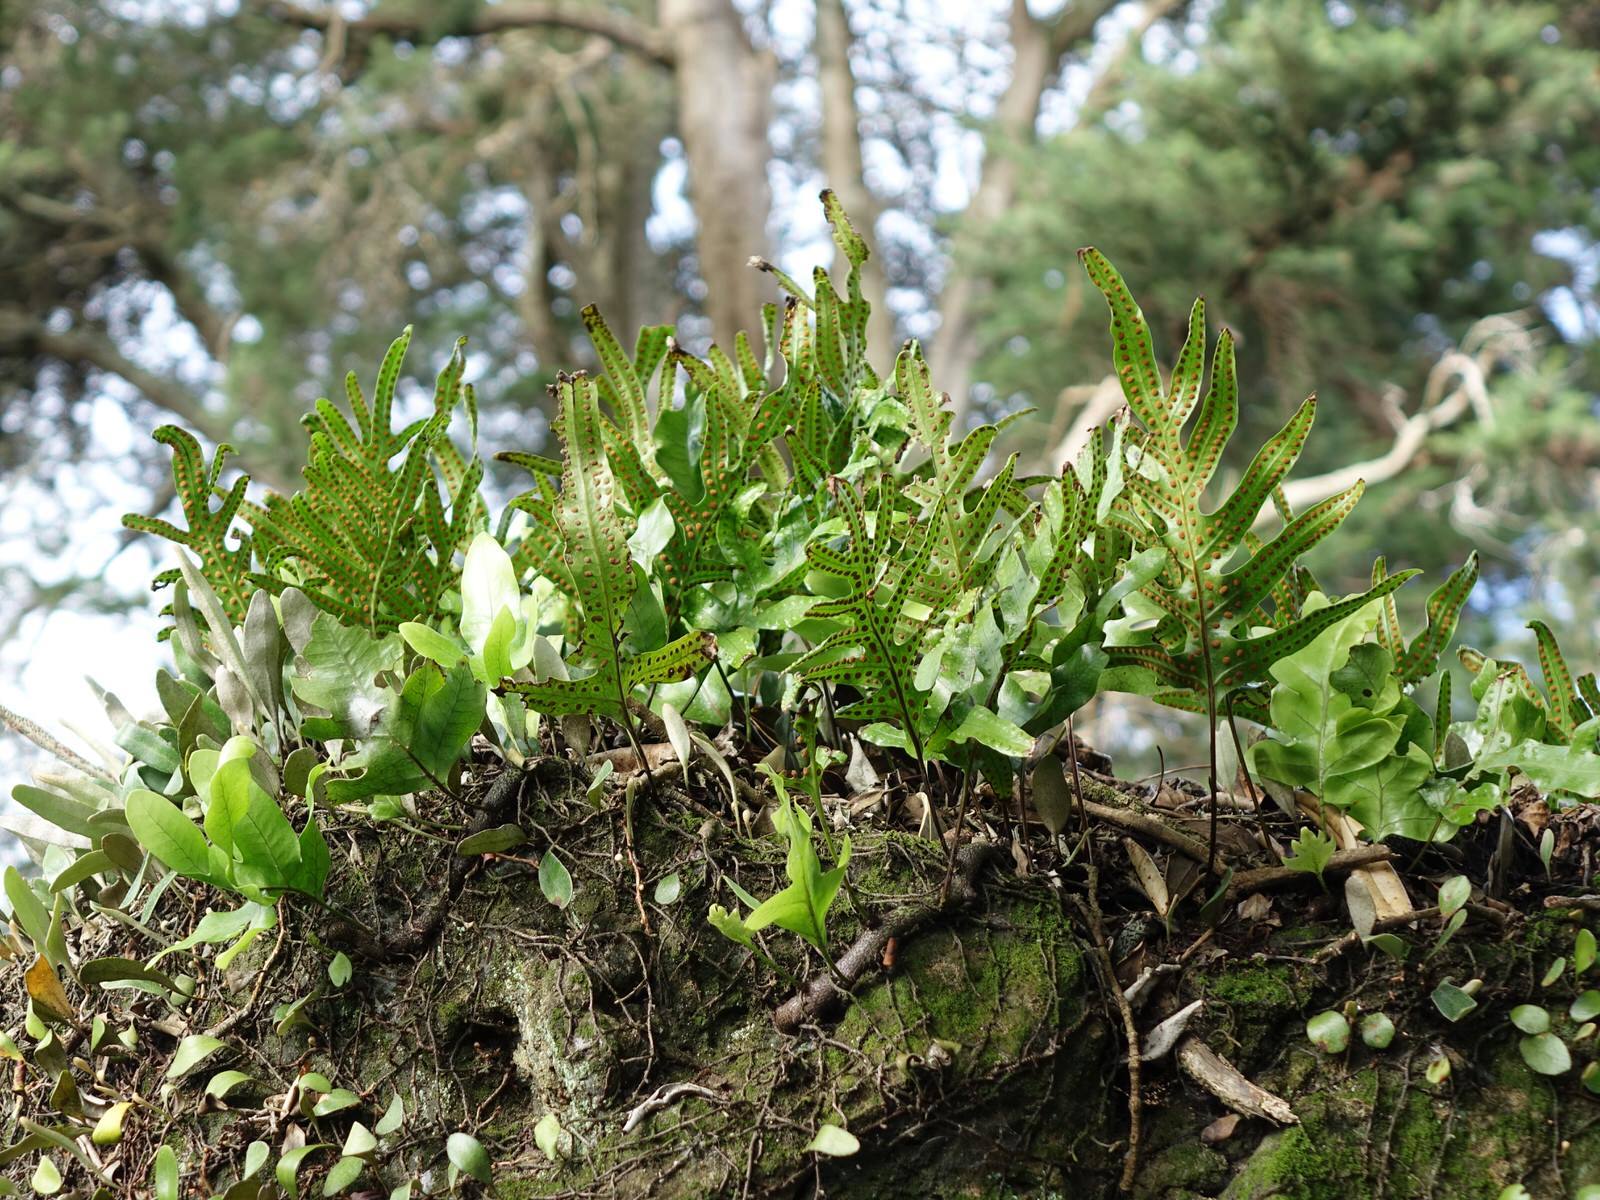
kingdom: Plantae
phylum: Tracheophyta
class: Polypodiopsida
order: Polypodiales
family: Polypodiaceae
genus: Lecanopteris
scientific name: Lecanopteris pustulata
